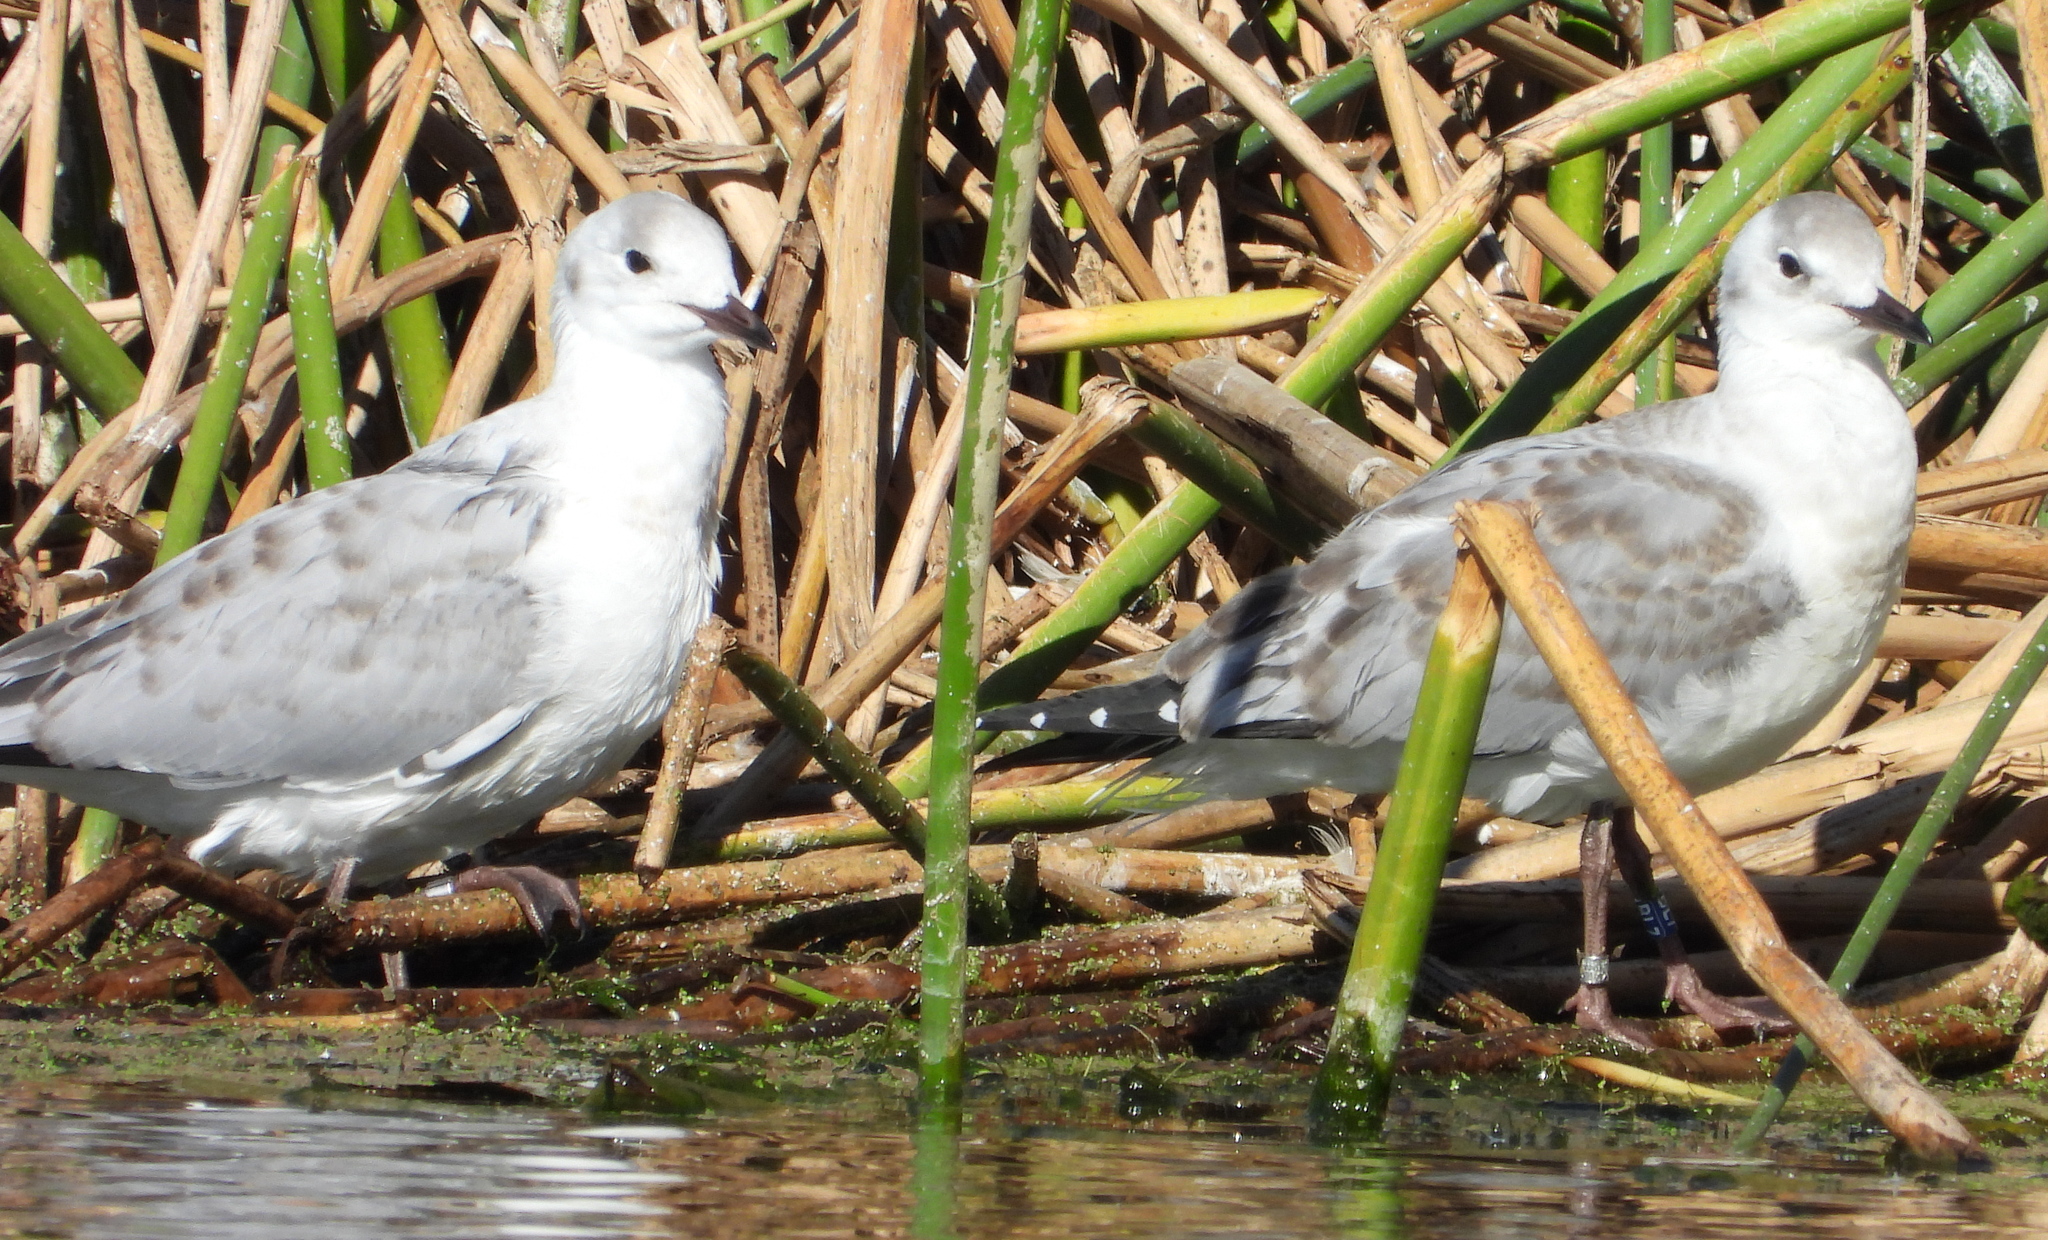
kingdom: Animalia
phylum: Chordata
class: Aves
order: Charadriiformes
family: Laridae
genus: Chroicocephalus
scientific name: Chroicocephalus hartlaubii
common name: Hartlaub's gull
